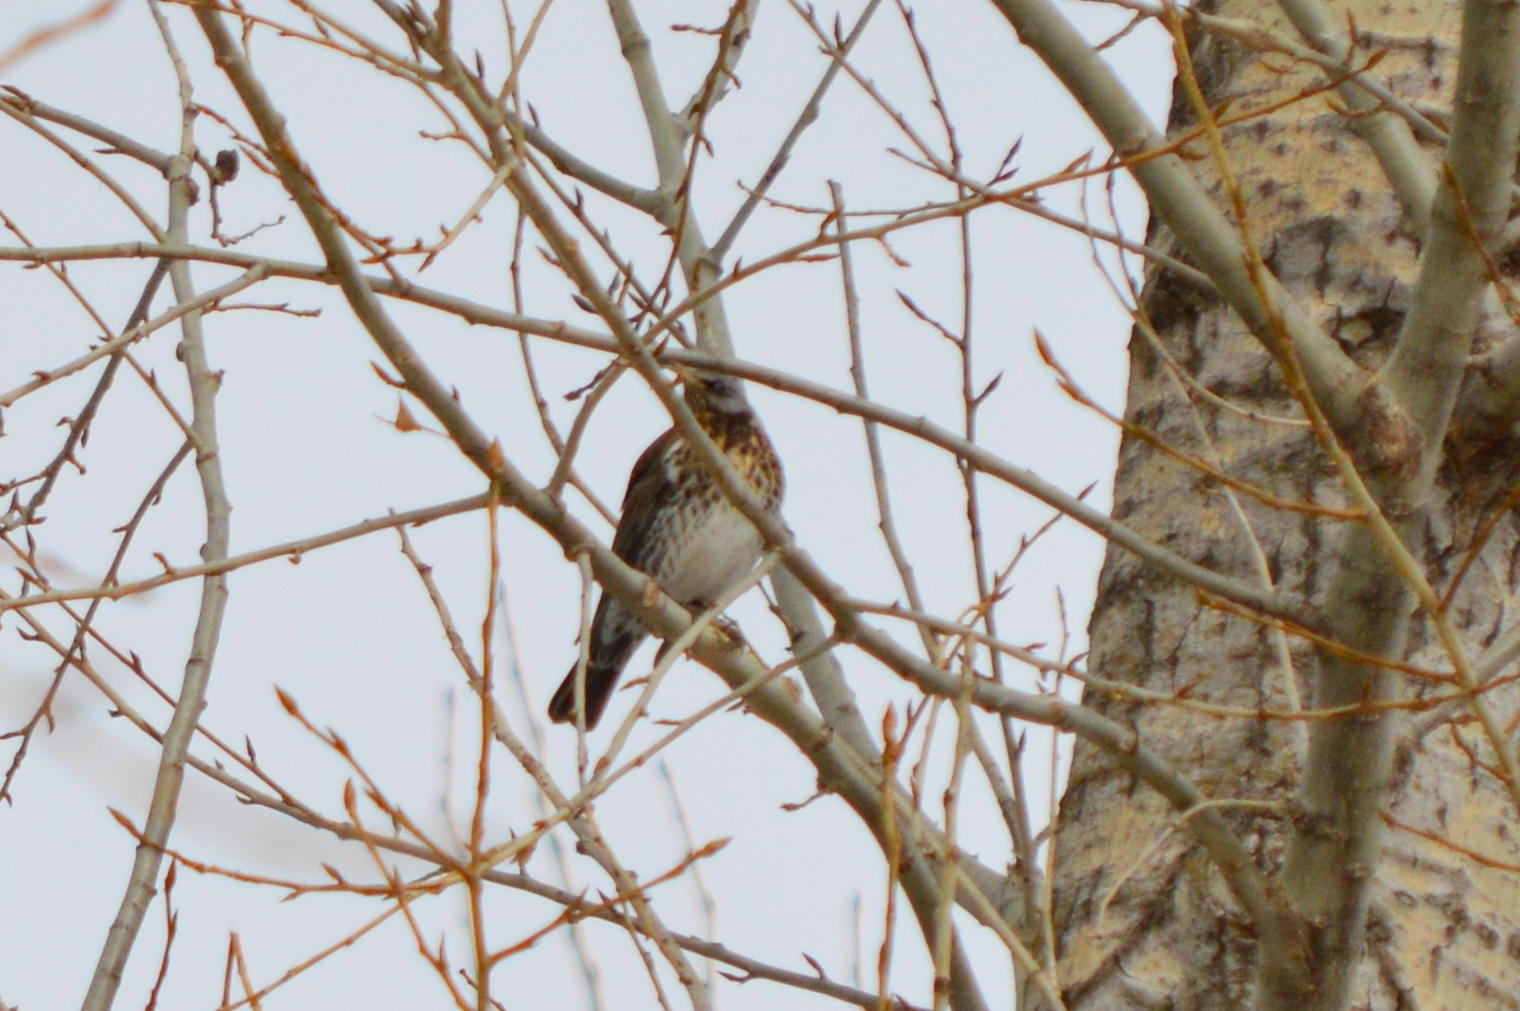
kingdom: Animalia
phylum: Chordata
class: Aves
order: Passeriformes
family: Turdidae
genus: Turdus
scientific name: Turdus pilaris
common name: Fieldfare
